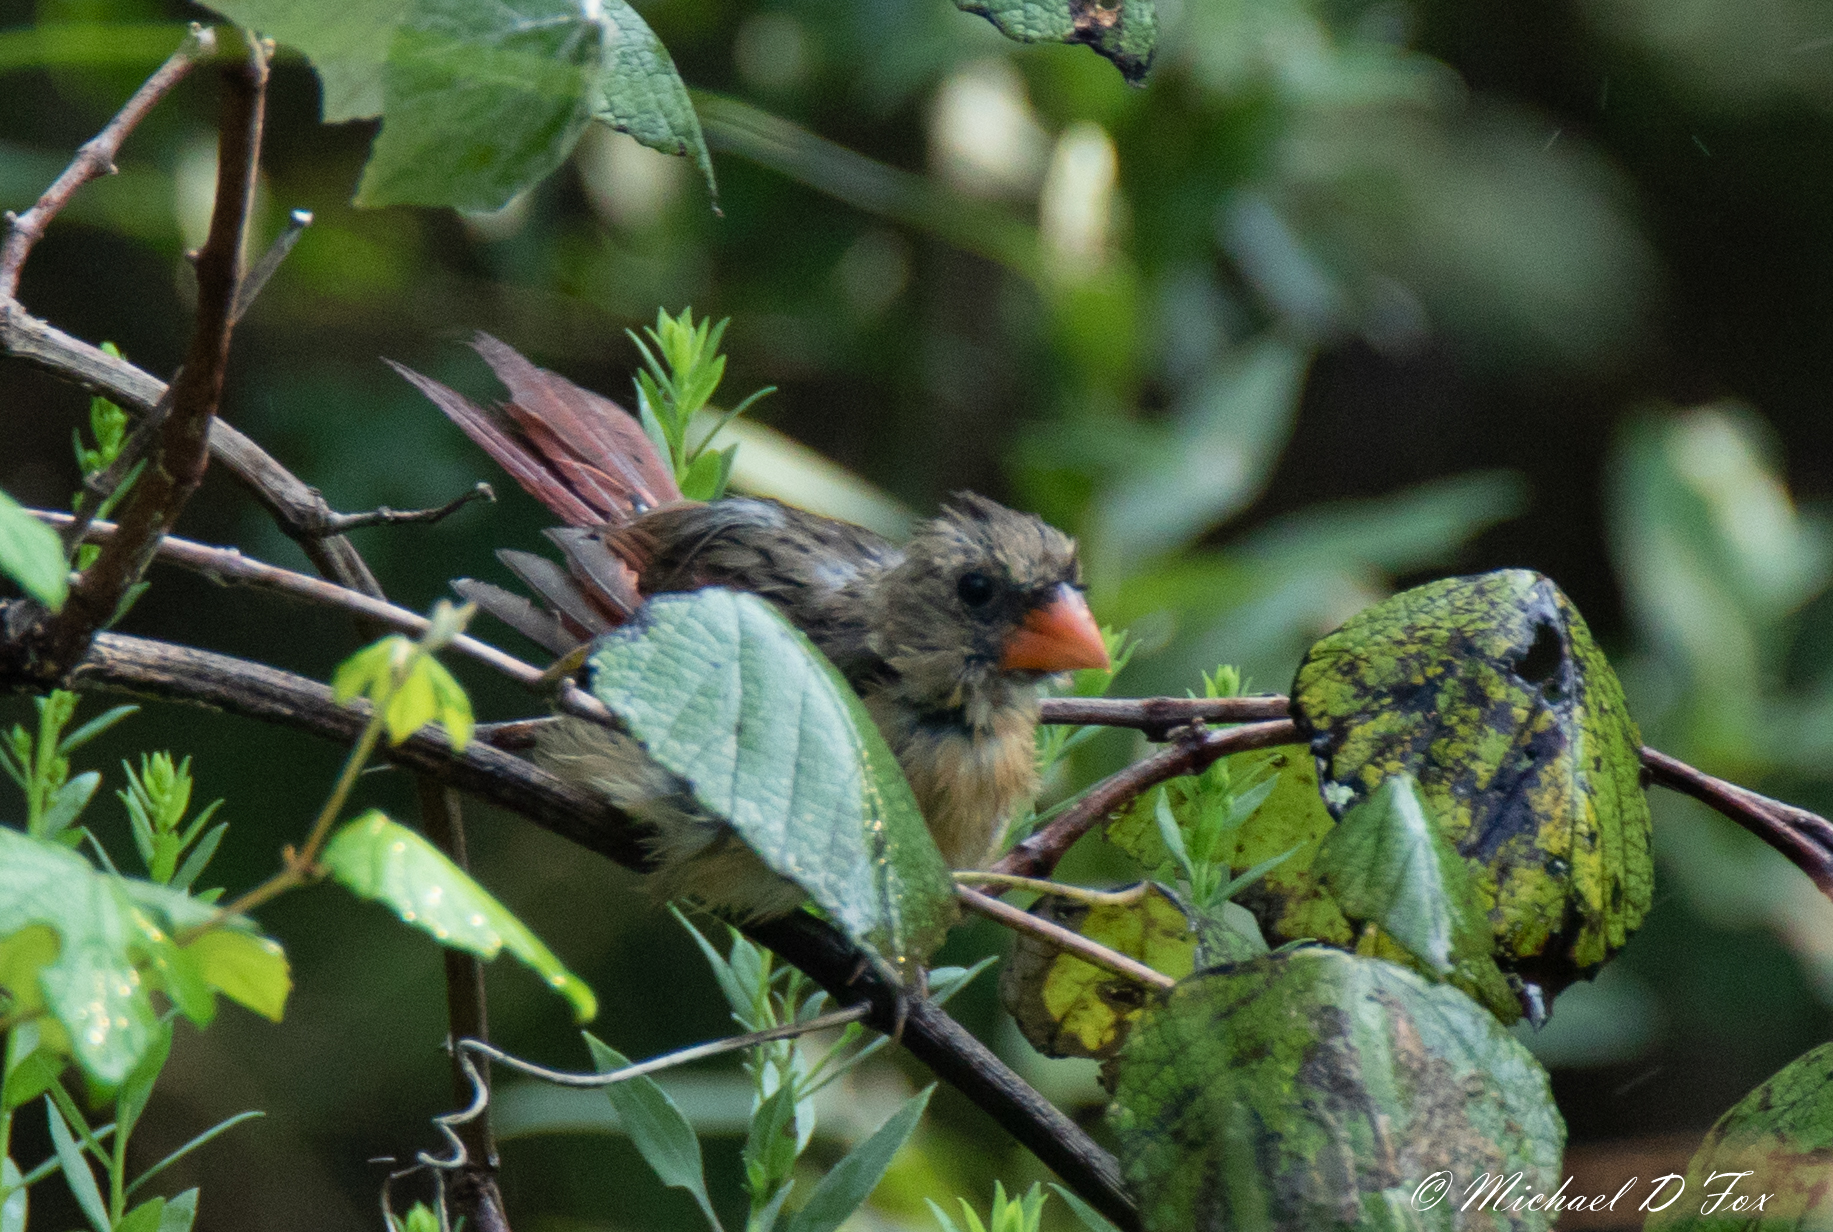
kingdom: Animalia
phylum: Chordata
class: Aves
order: Passeriformes
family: Cardinalidae
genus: Cardinalis
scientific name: Cardinalis cardinalis
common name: Northern cardinal
